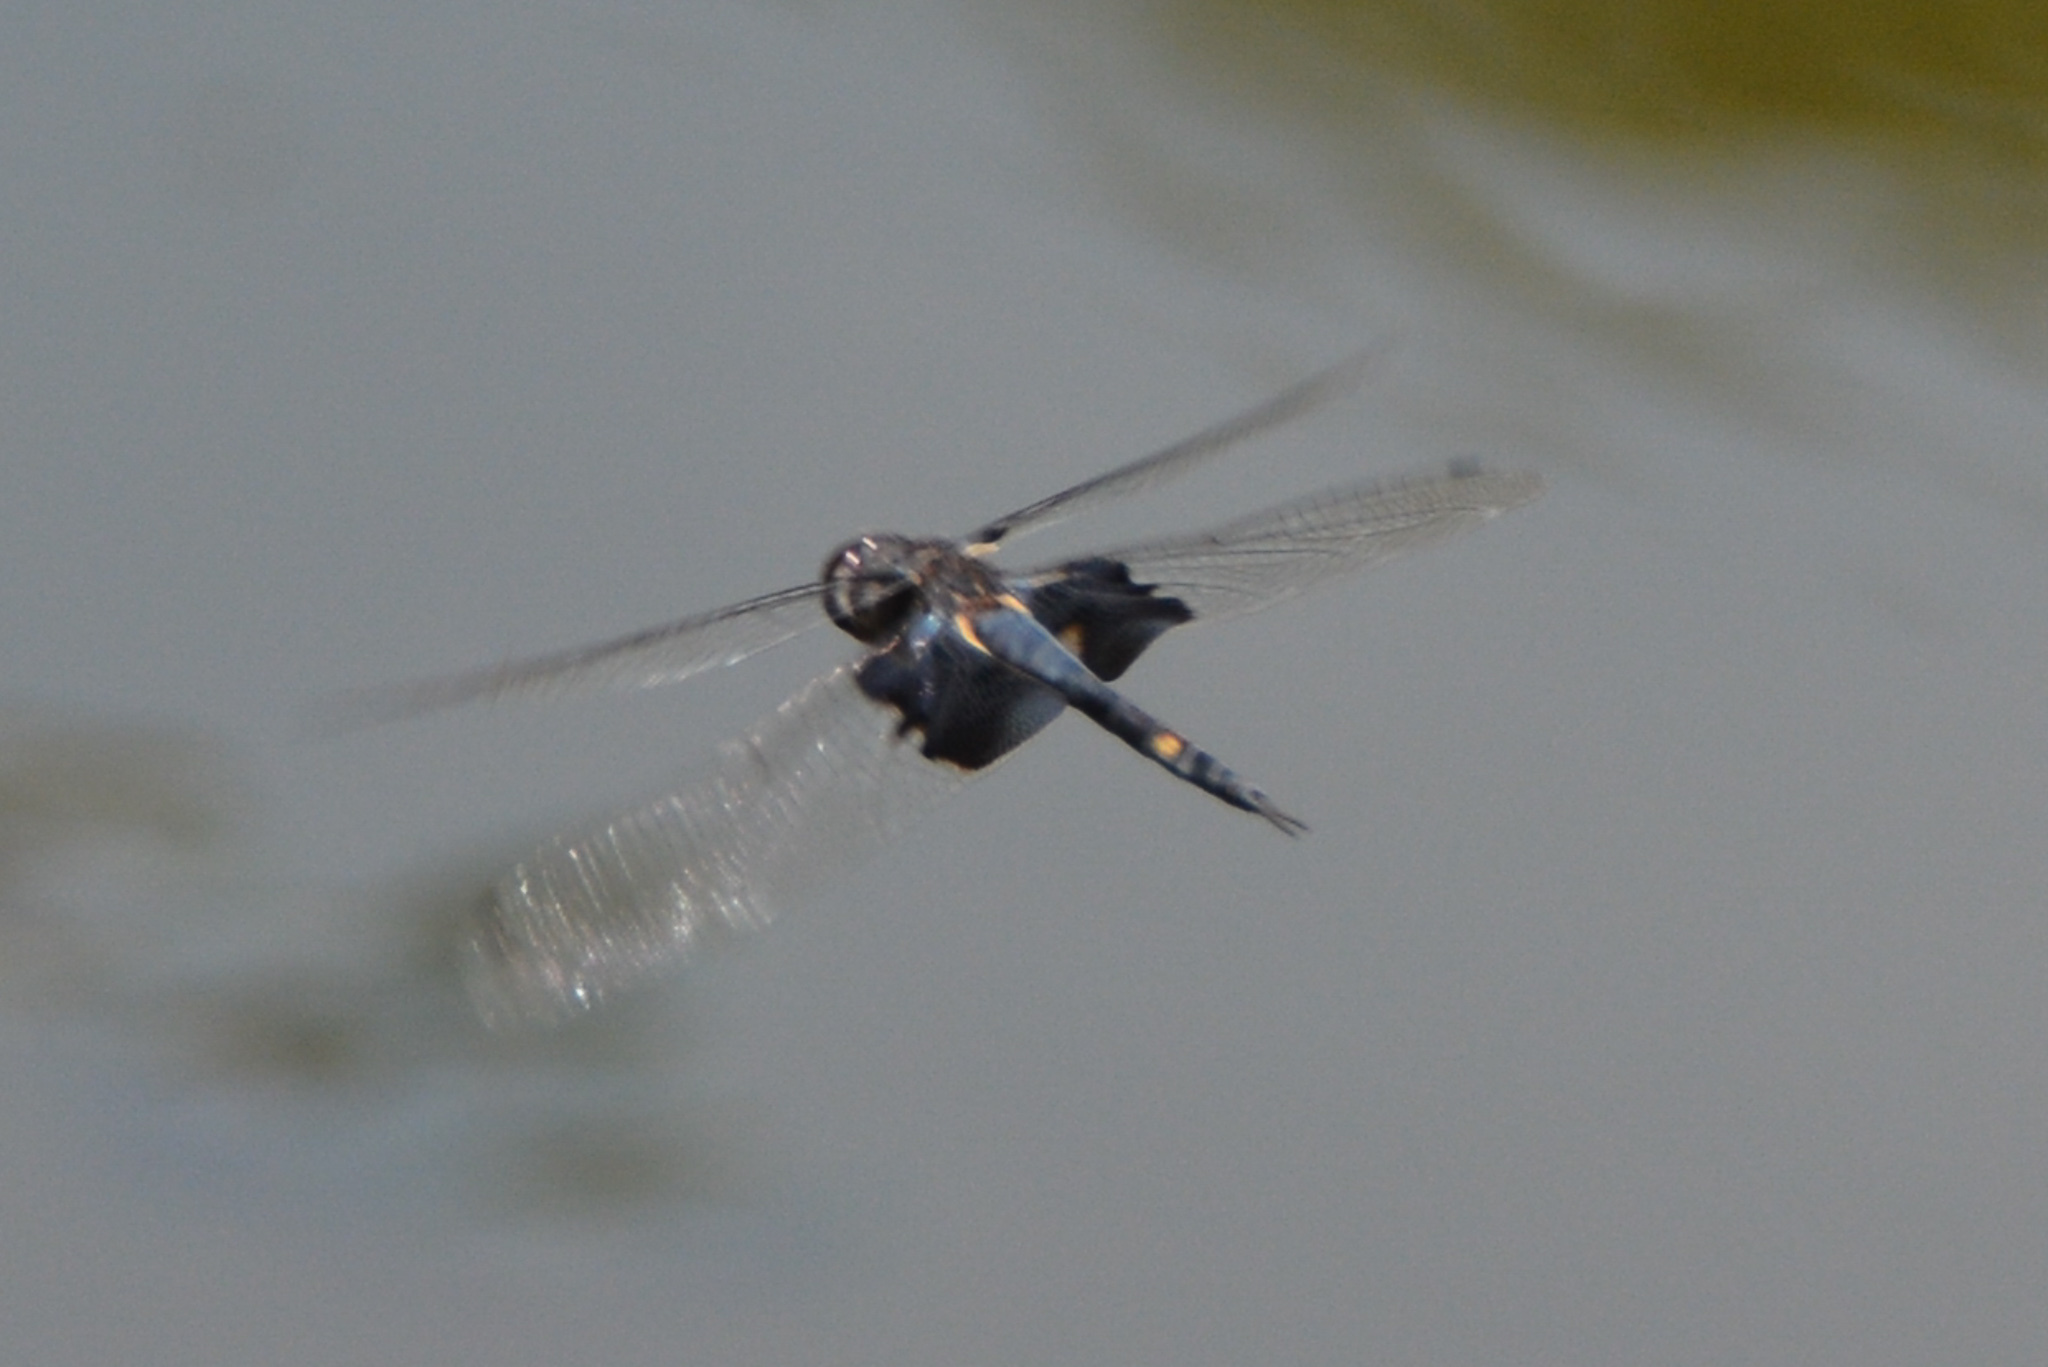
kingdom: Animalia
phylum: Arthropoda
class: Insecta
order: Odonata
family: Libellulidae
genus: Tramea
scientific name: Tramea lacerata
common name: Black saddlebags
